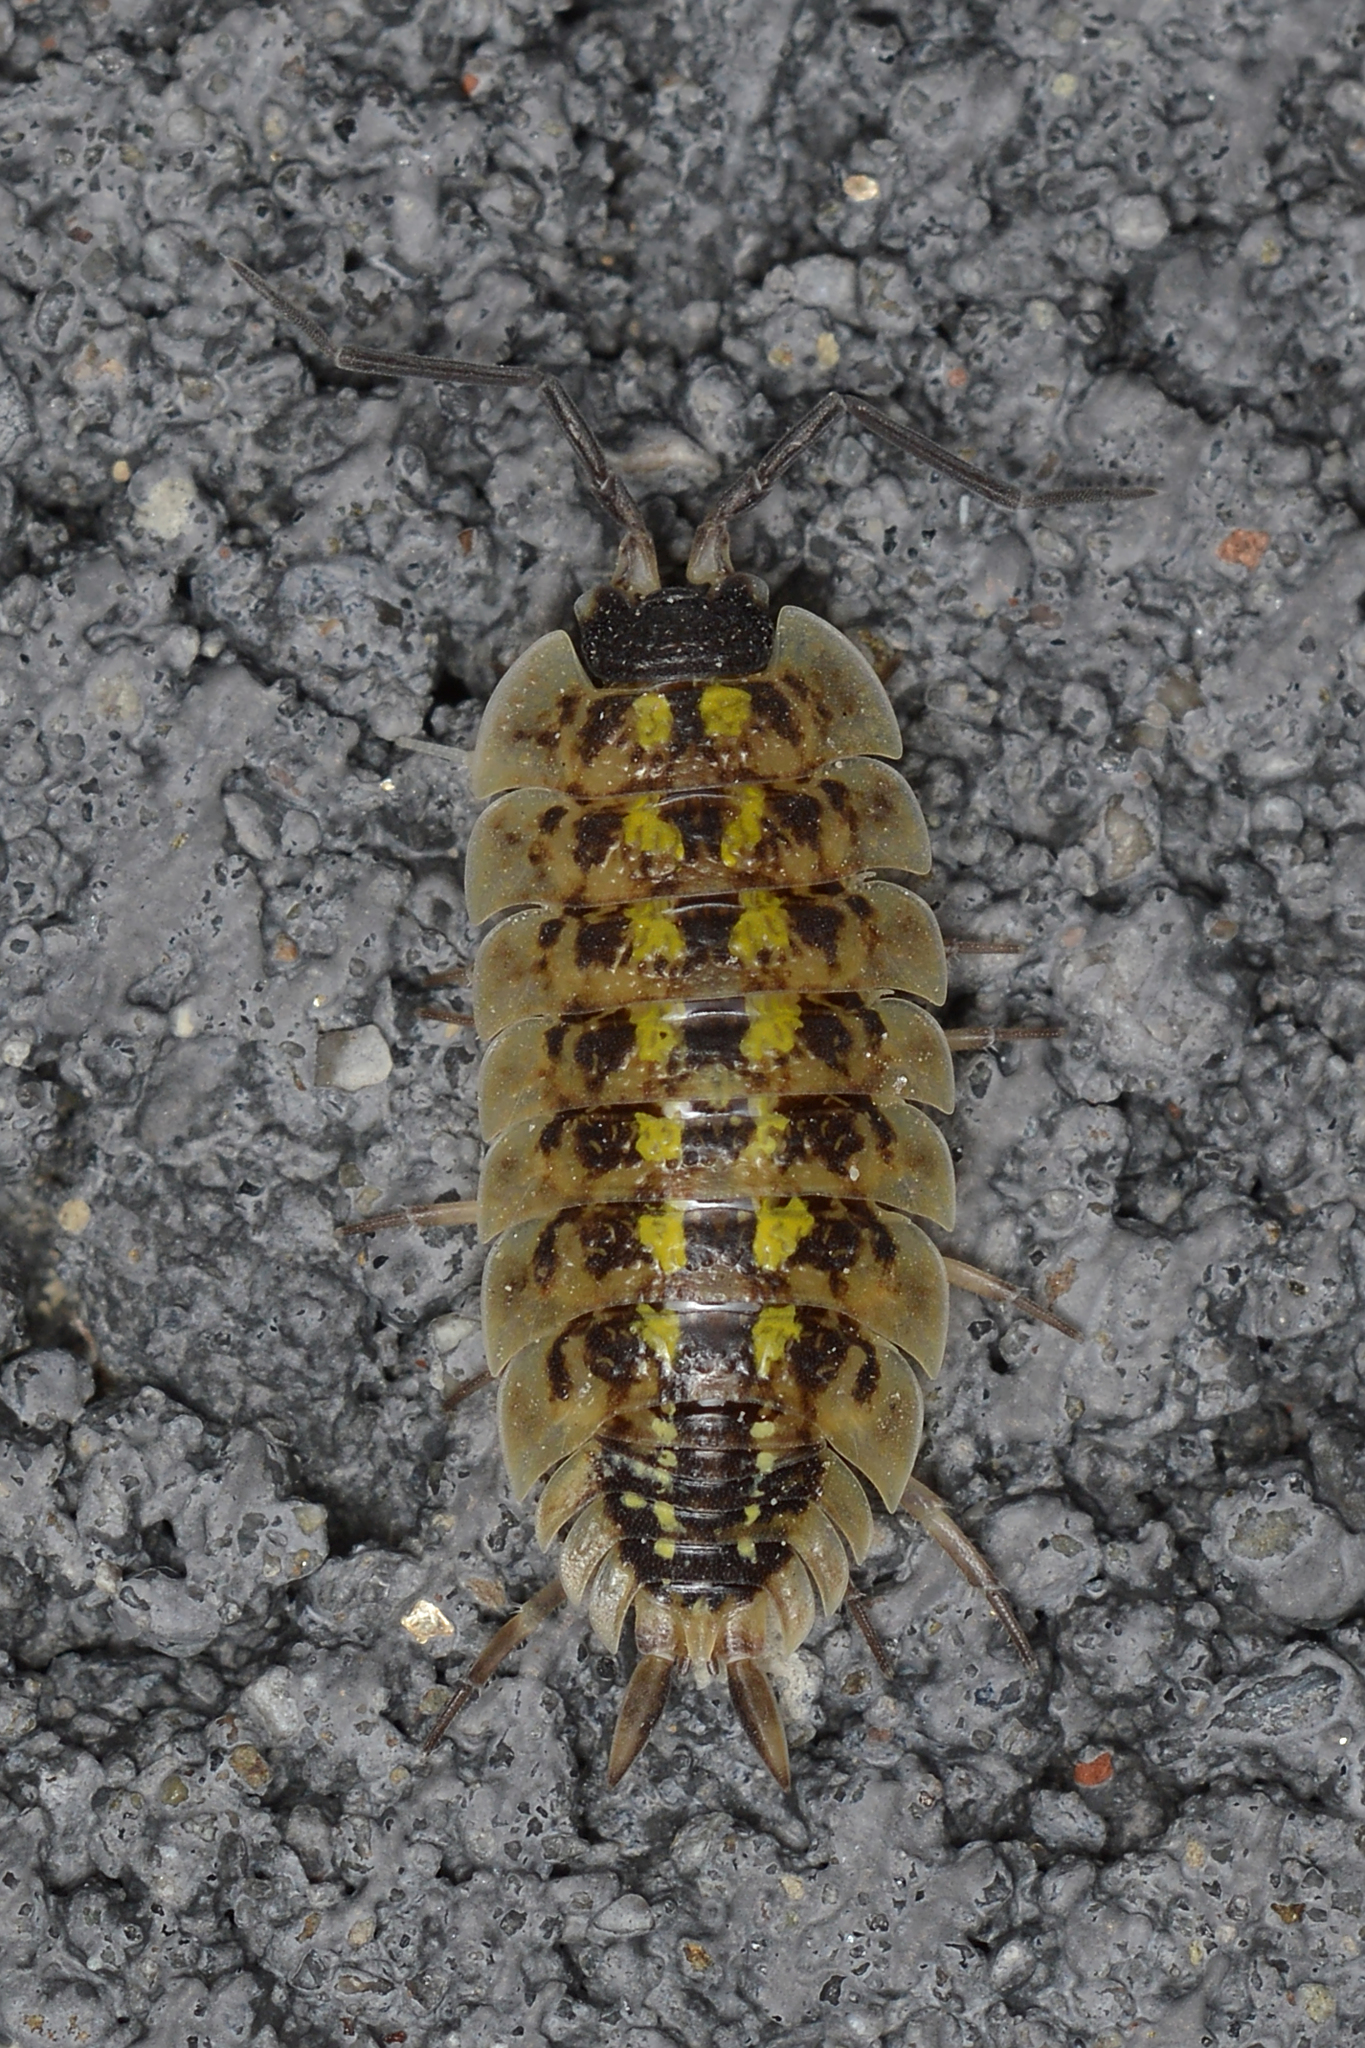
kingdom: Animalia
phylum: Arthropoda
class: Malacostraca
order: Isopoda
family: Porcellionidae
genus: Porcellio
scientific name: Porcellio spinicornis
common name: Painted woodlouse
